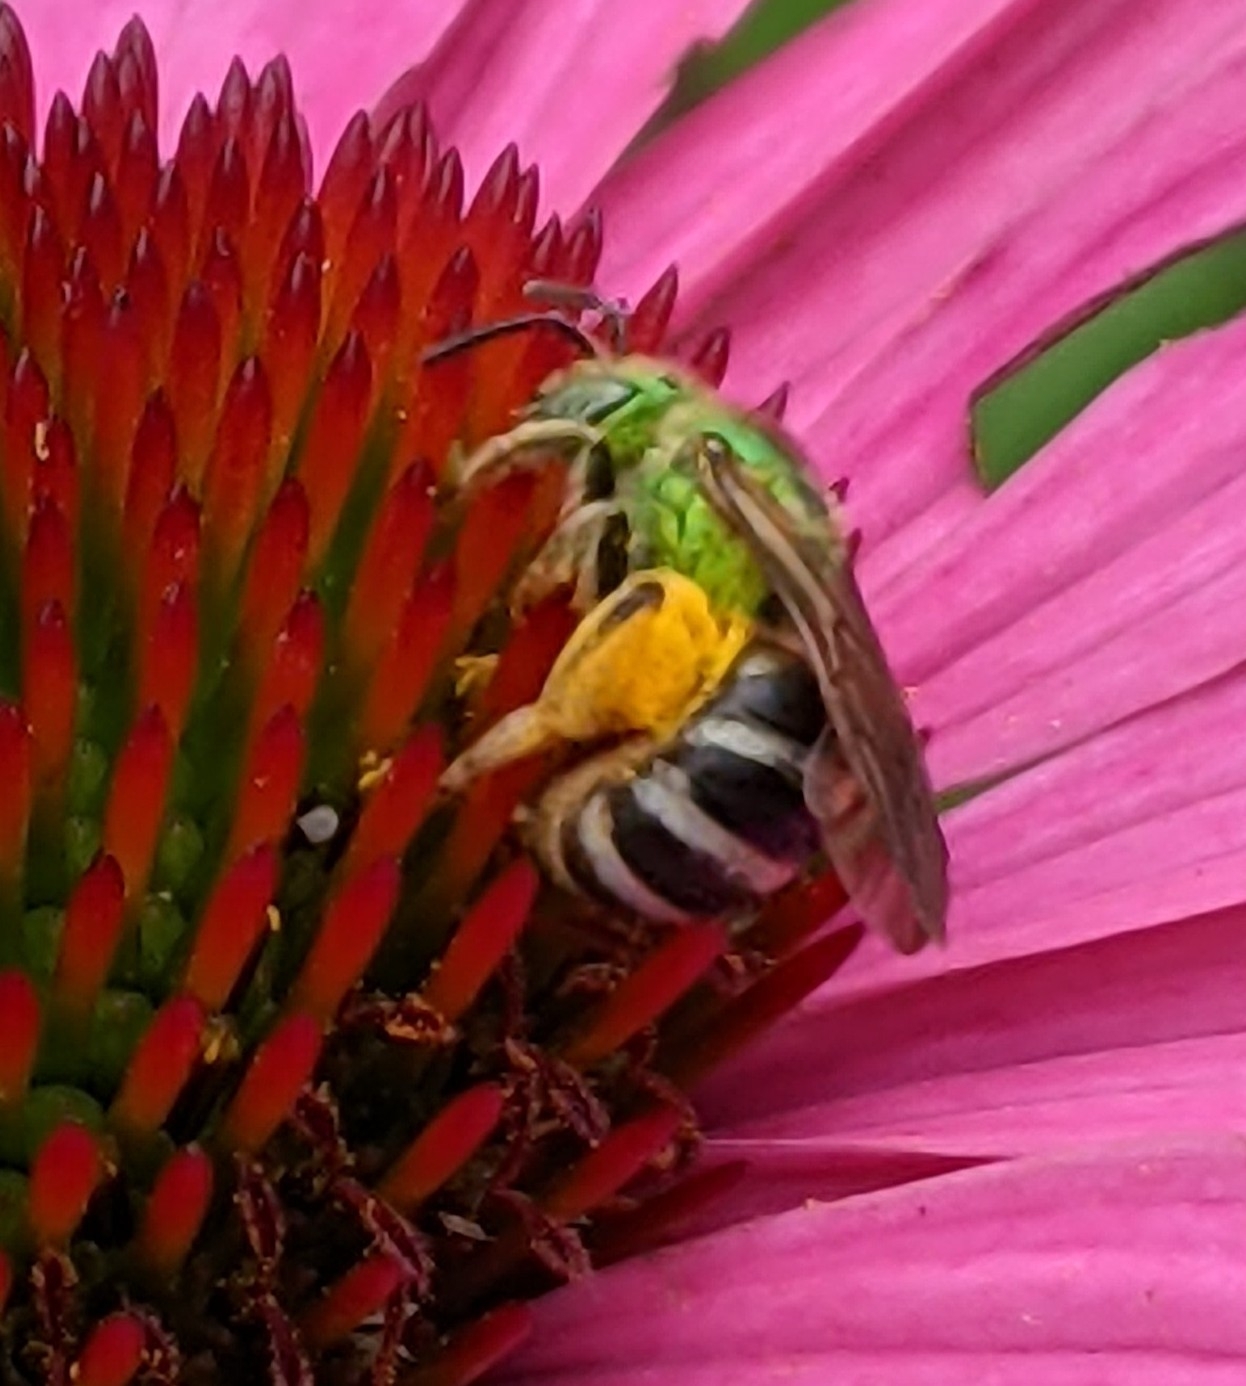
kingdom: Animalia
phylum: Arthropoda
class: Insecta
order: Hymenoptera
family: Halictidae
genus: Agapostemon
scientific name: Agapostemon virescens
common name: Bicolored striped sweat bee
